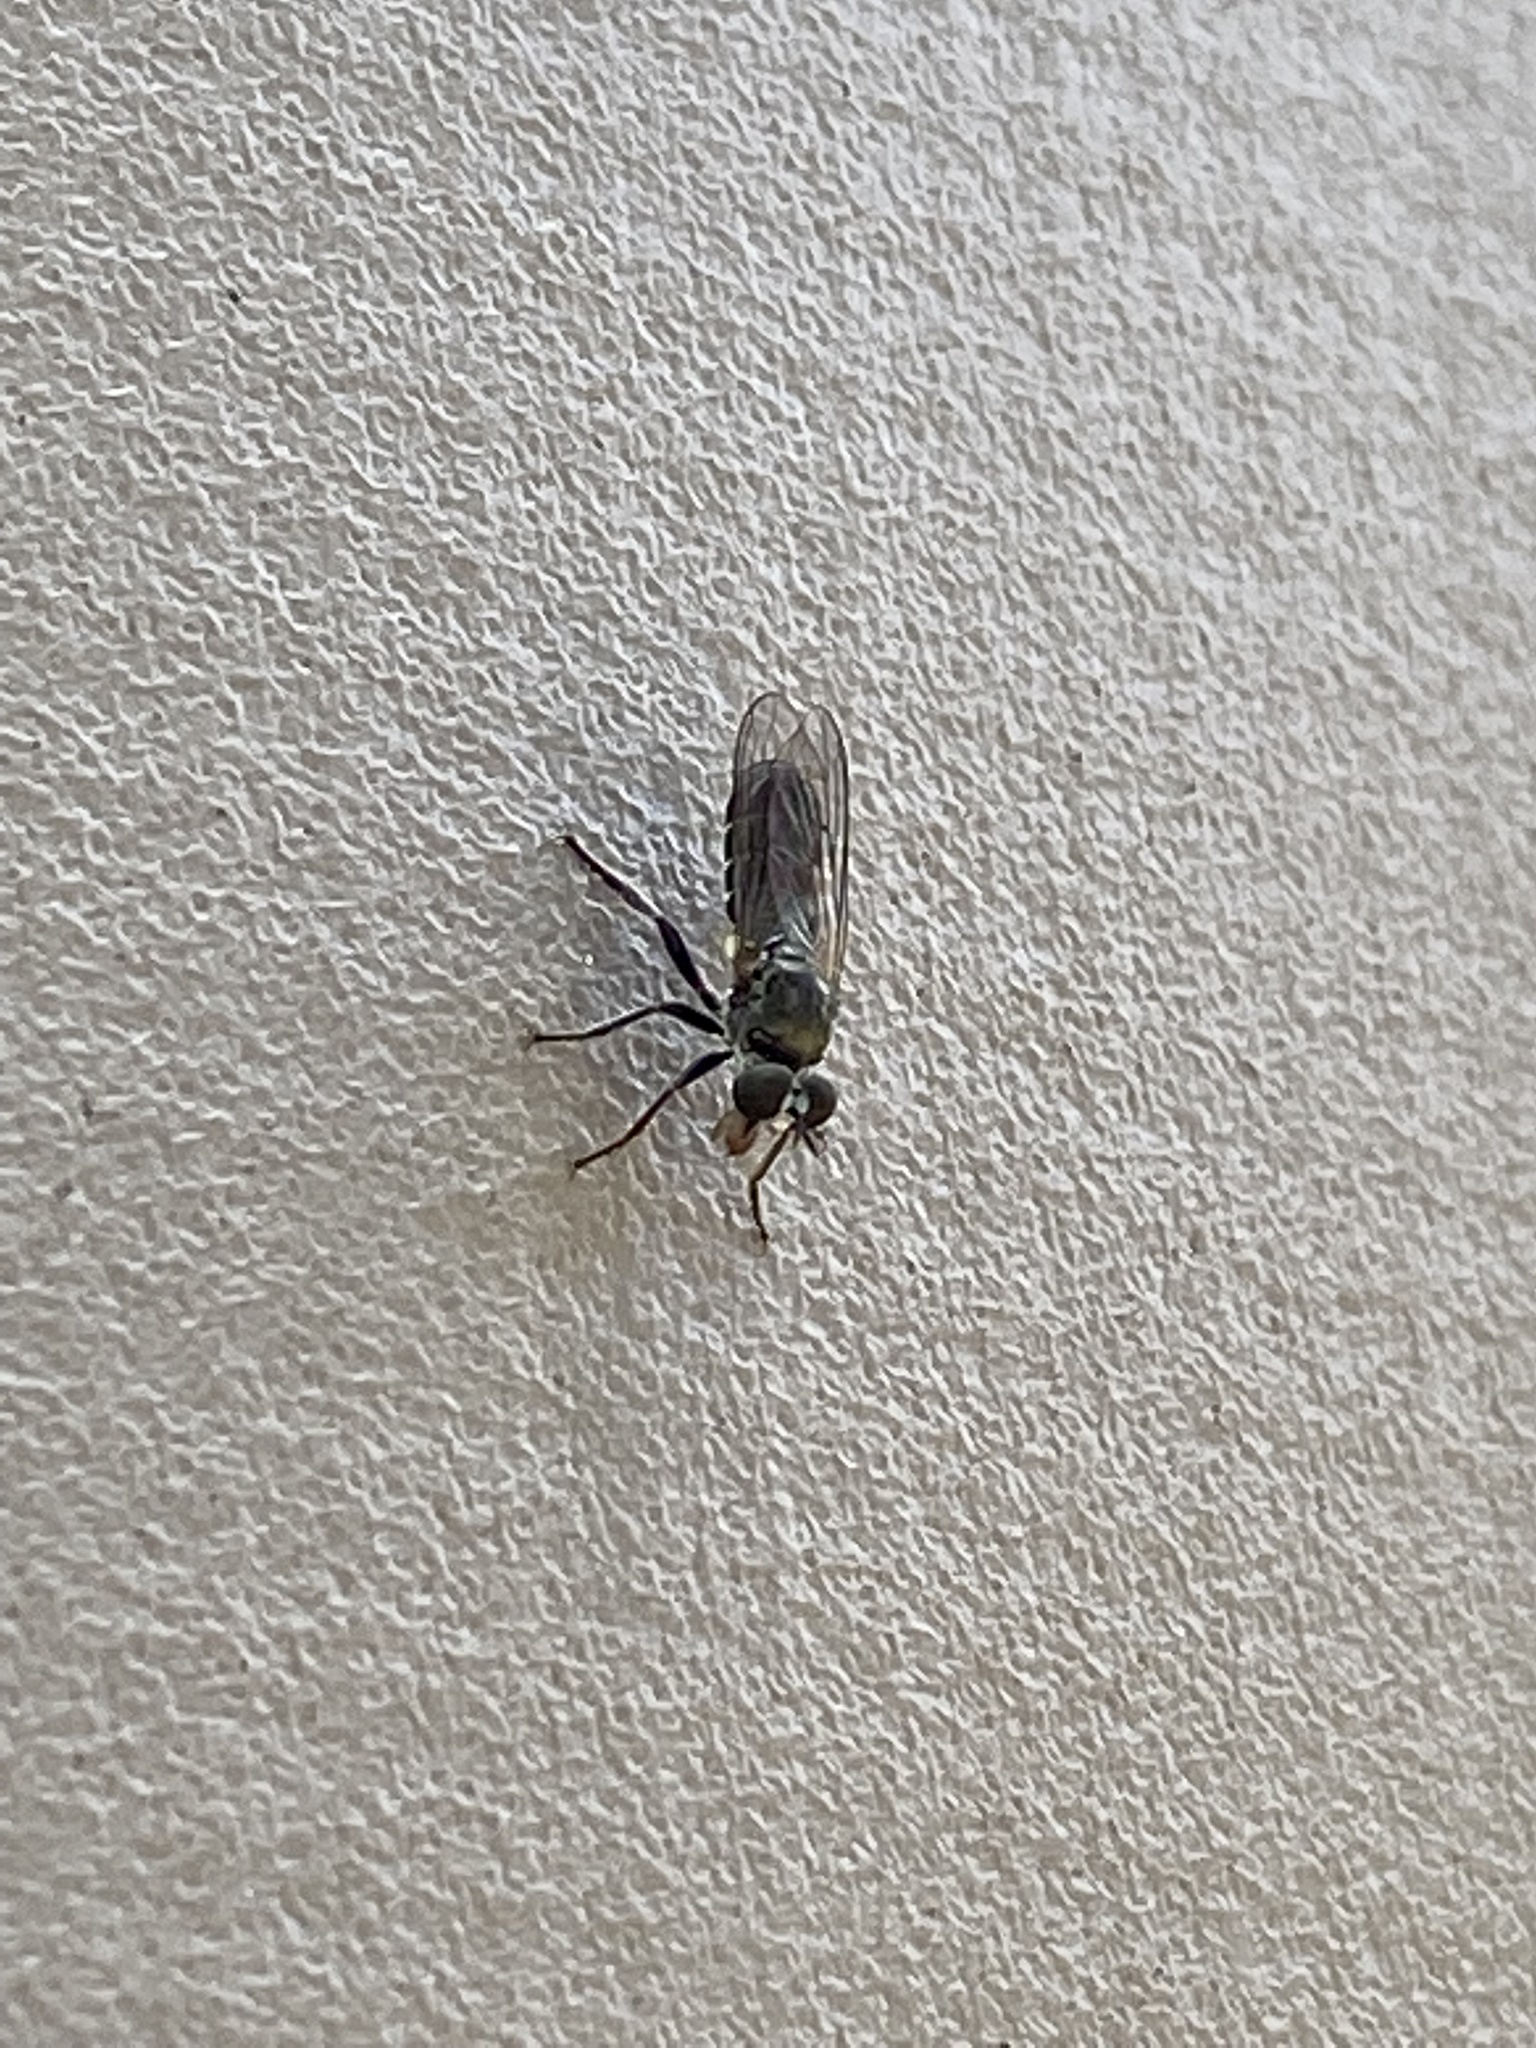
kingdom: Animalia
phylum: Arthropoda
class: Insecta
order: Diptera
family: Asilidae
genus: Atomosia
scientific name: Atomosia puella
